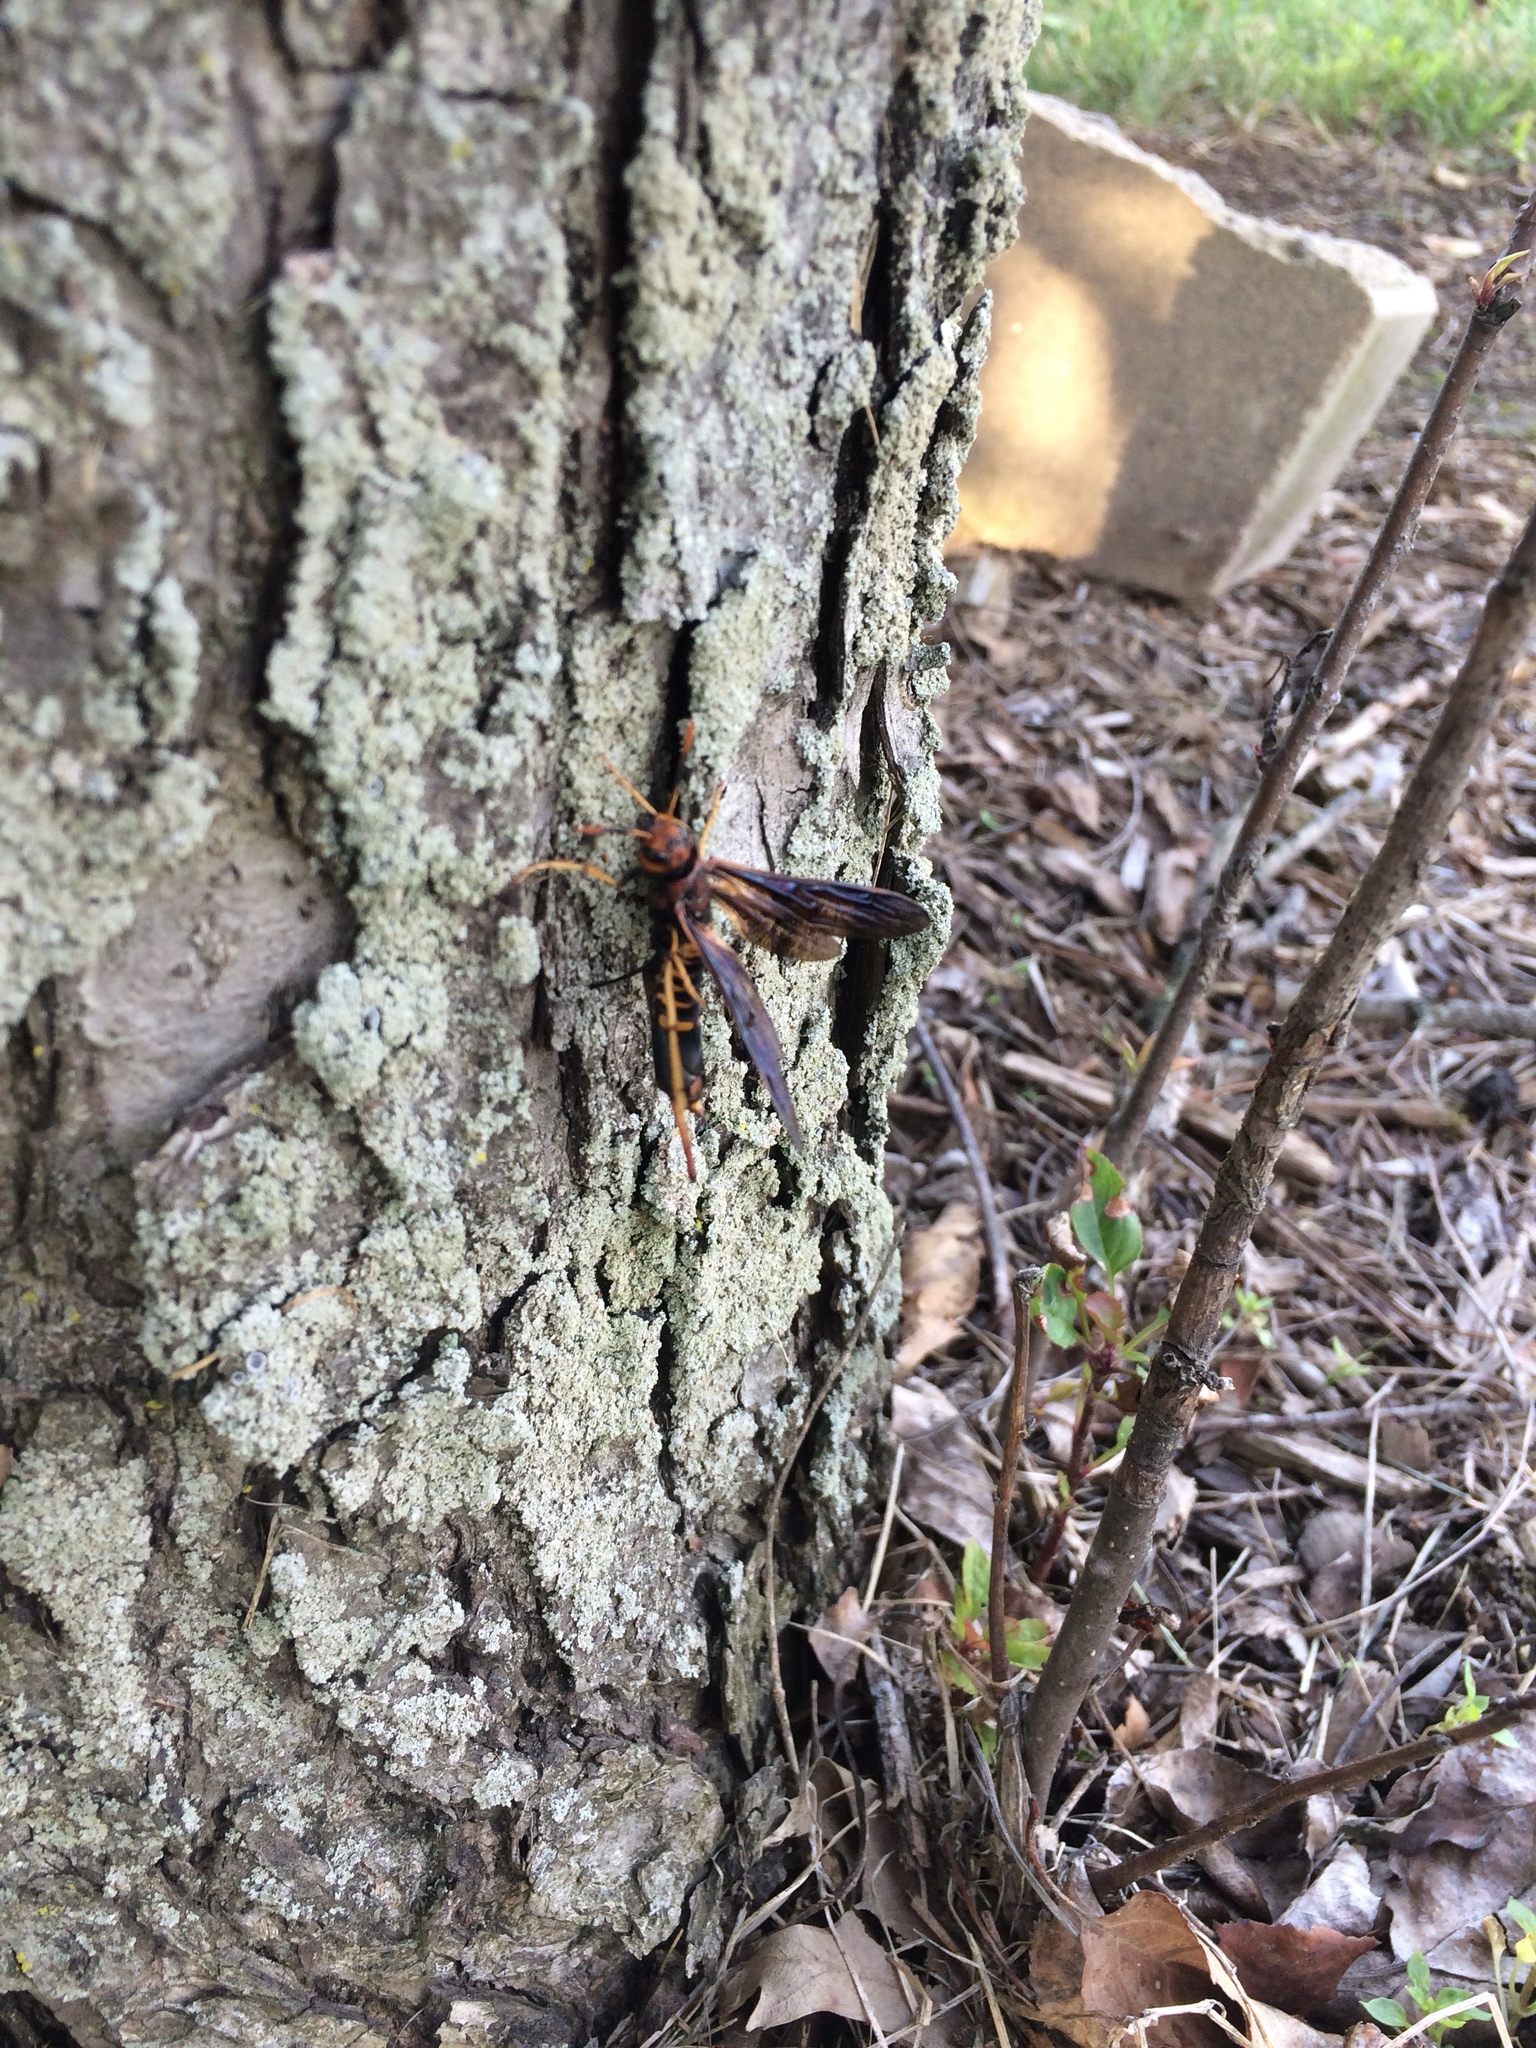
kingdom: Animalia
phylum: Arthropoda
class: Insecta
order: Hymenoptera
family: Siricidae
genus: Tremex
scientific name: Tremex columba
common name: Wasp
